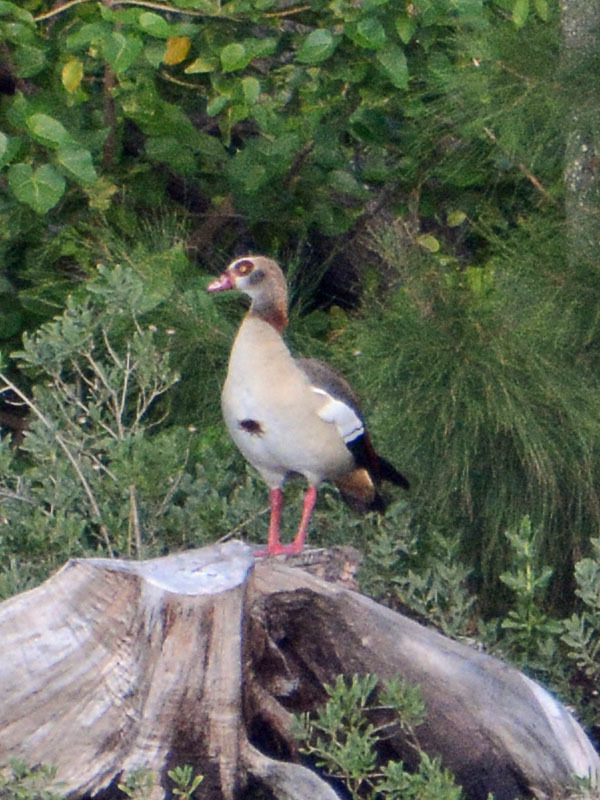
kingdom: Animalia
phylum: Chordata
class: Aves
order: Anseriformes
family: Anatidae
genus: Alopochen
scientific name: Alopochen aegyptiaca
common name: Egyptian goose
